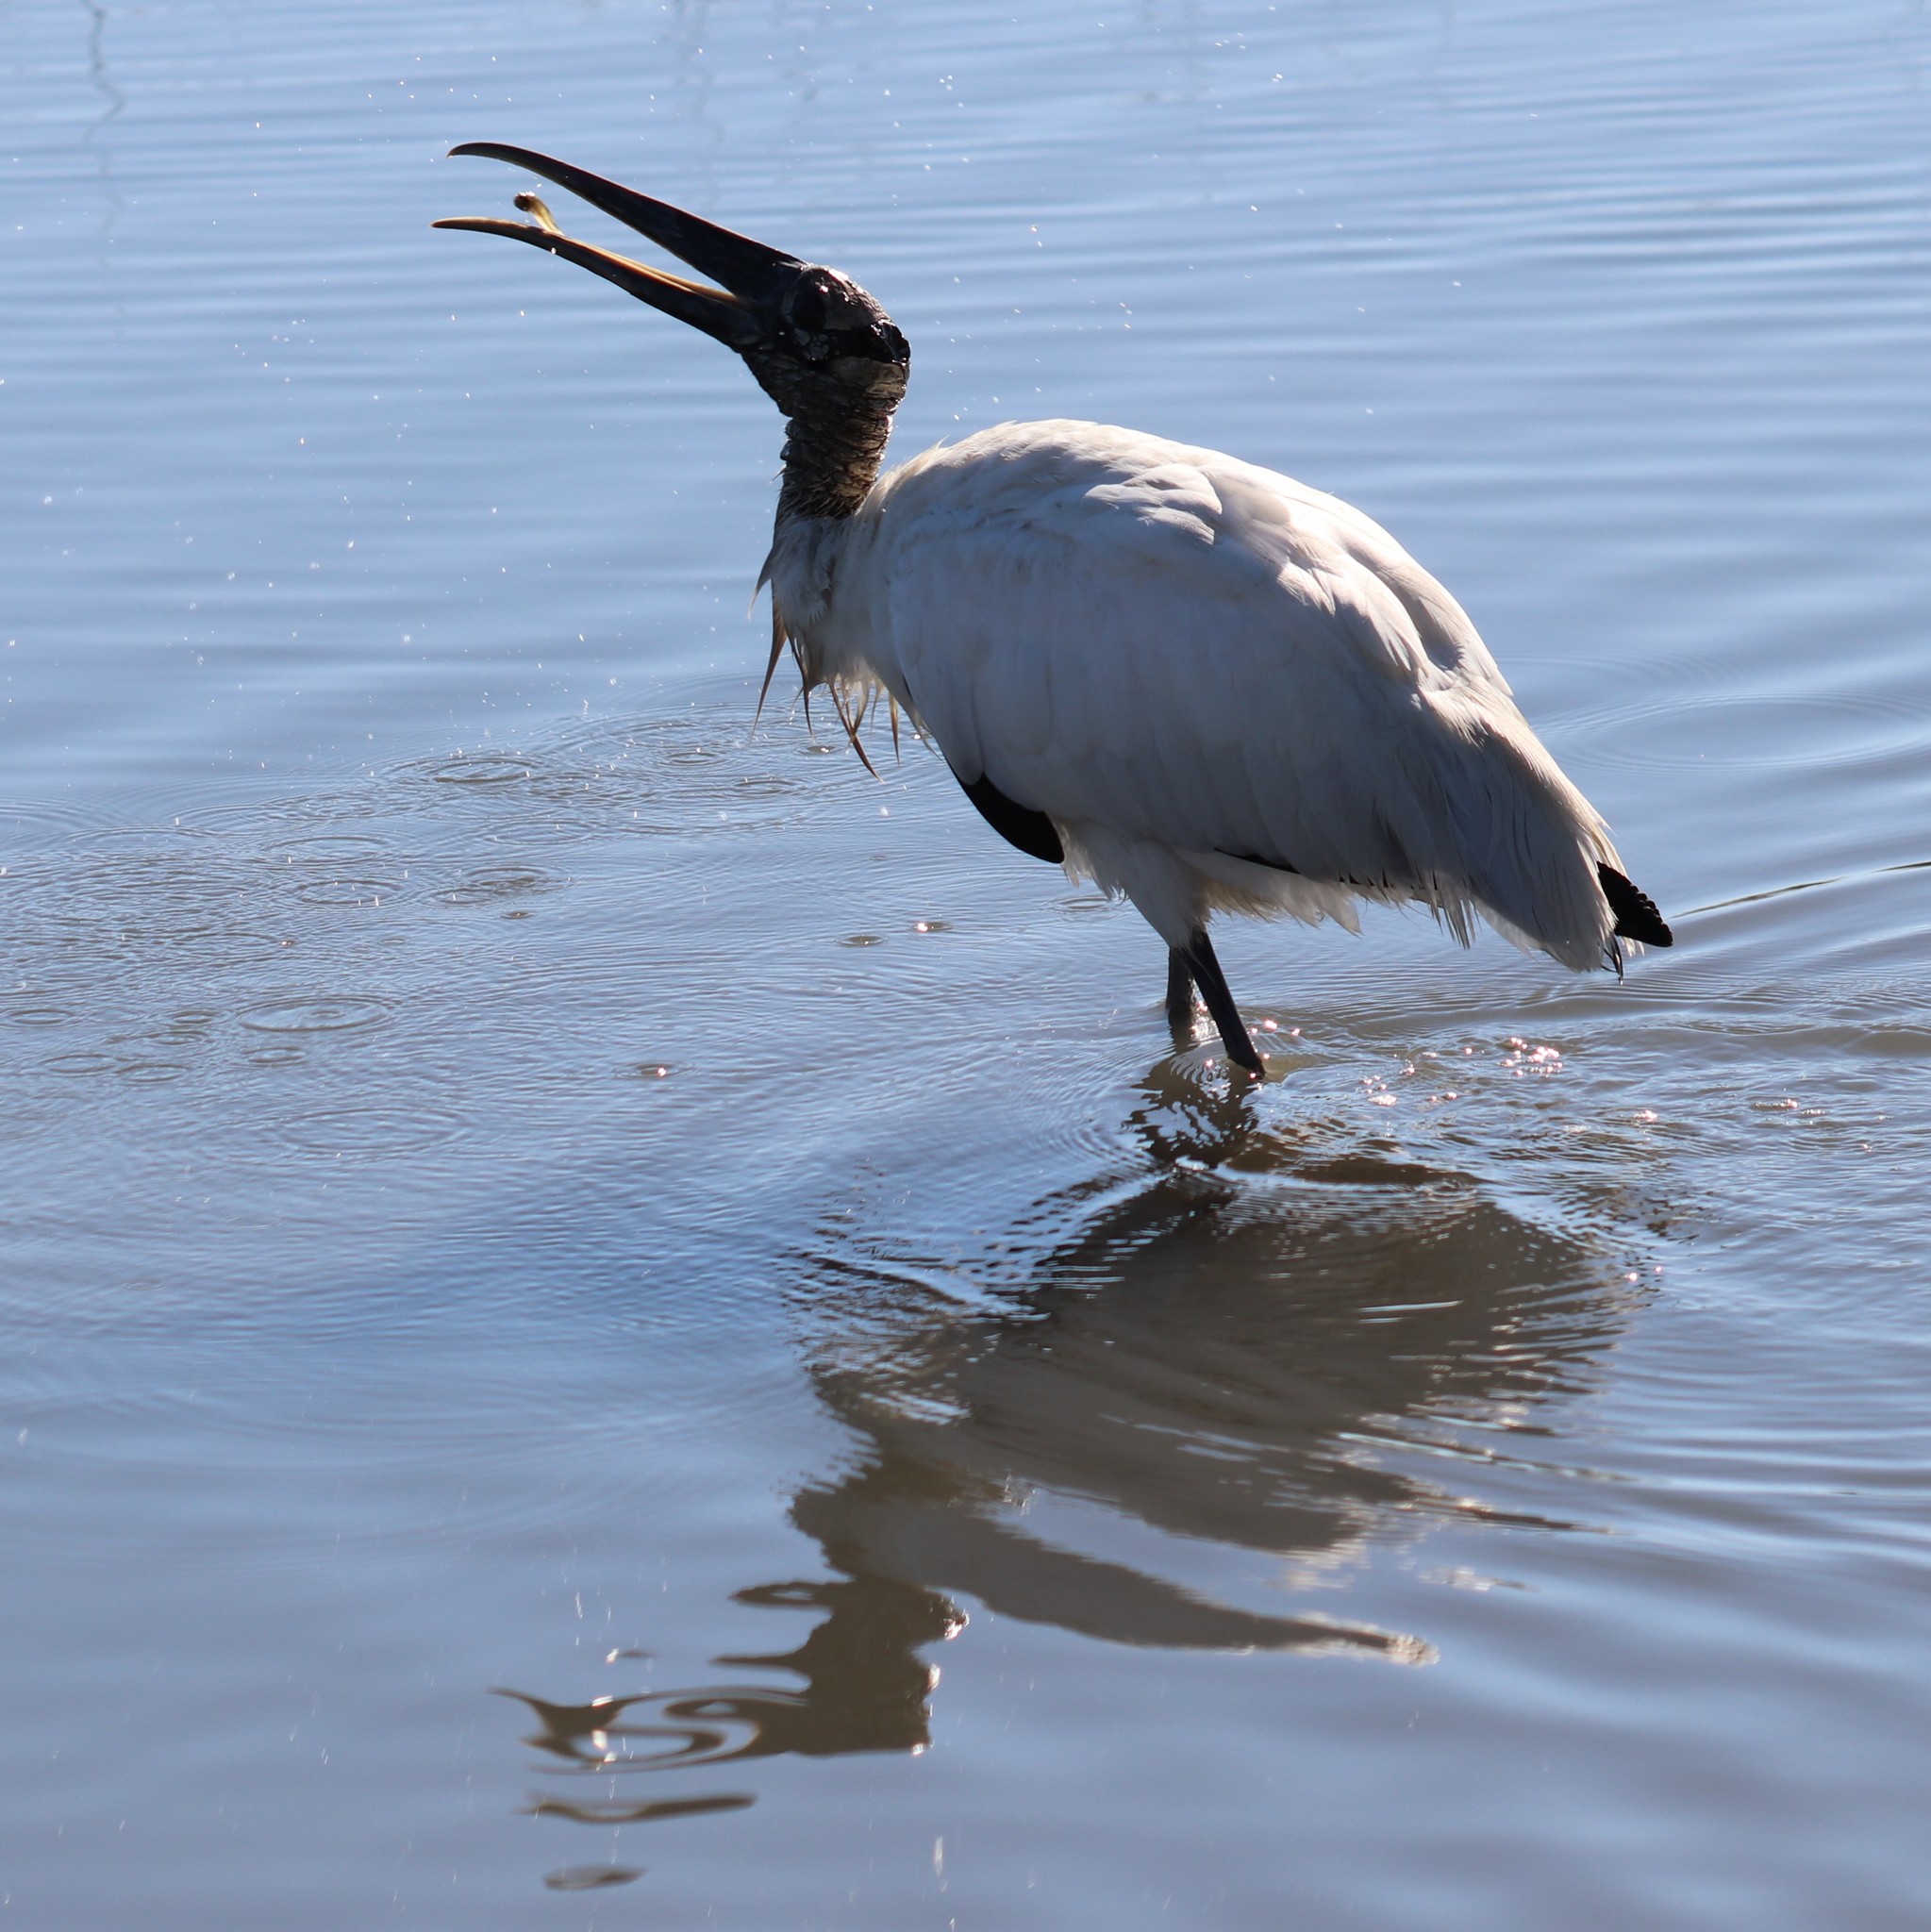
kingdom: Animalia
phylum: Chordata
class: Aves
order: Ciconiiformes
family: Ciconiidae
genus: Mycteria
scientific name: Mycteria americana
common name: Wood stork
